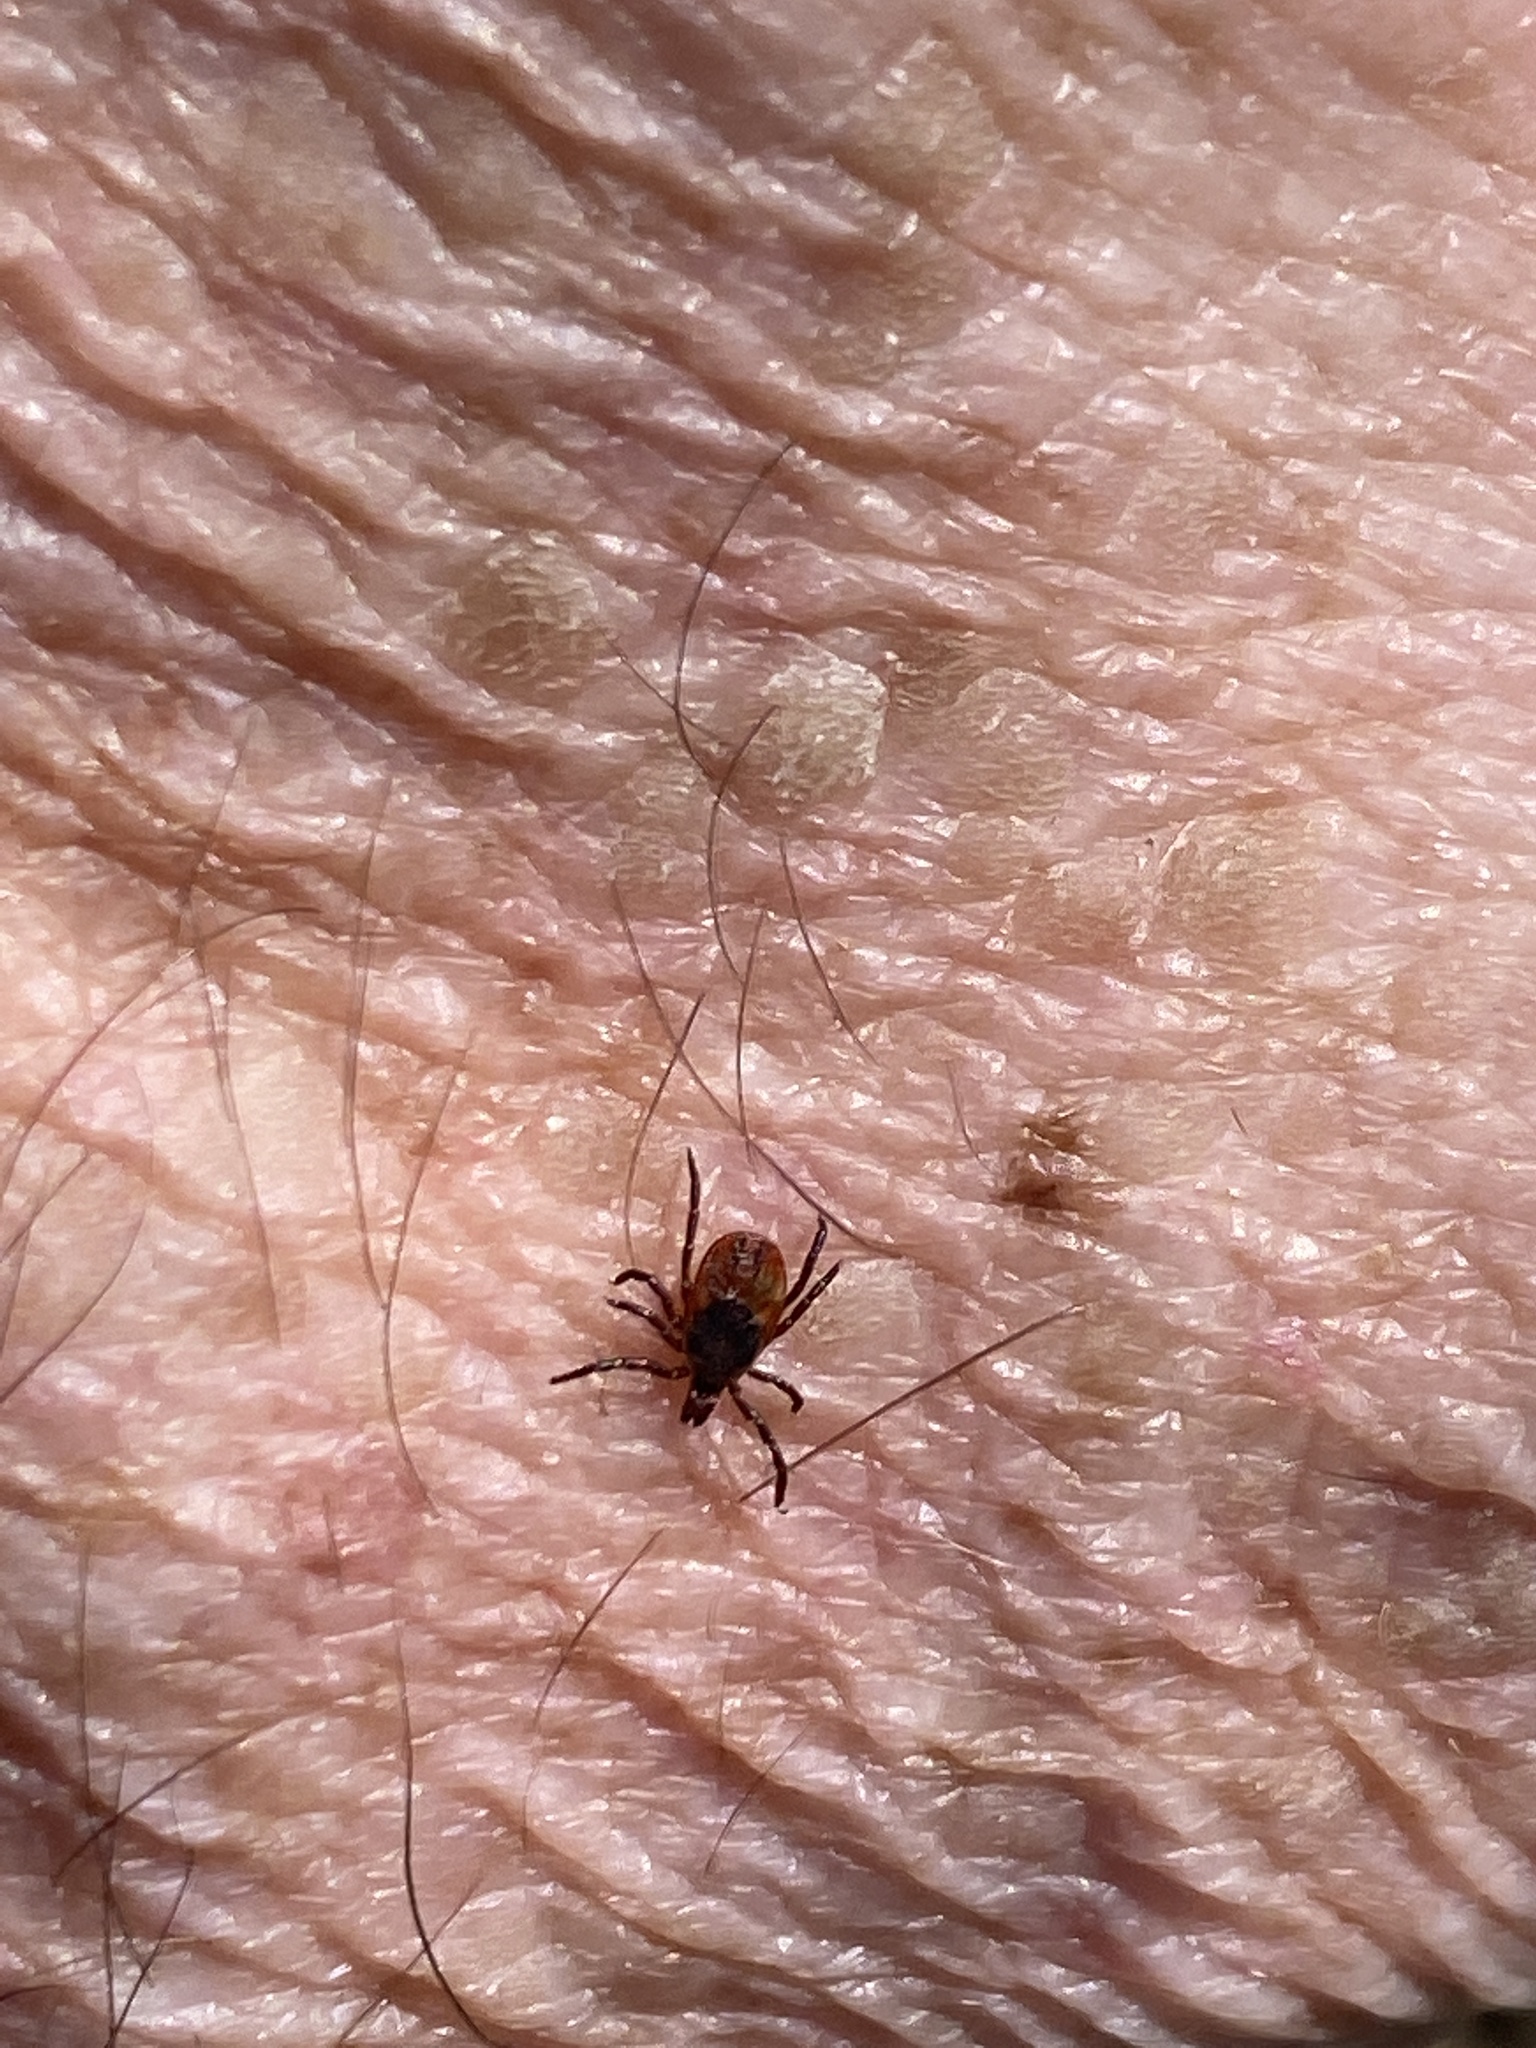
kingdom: Animalia
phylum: Arthropoda
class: Arachnida
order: Ixodida
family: Ixodidae
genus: Ixodes
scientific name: Ixodes scapularis
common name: Black legged tick
